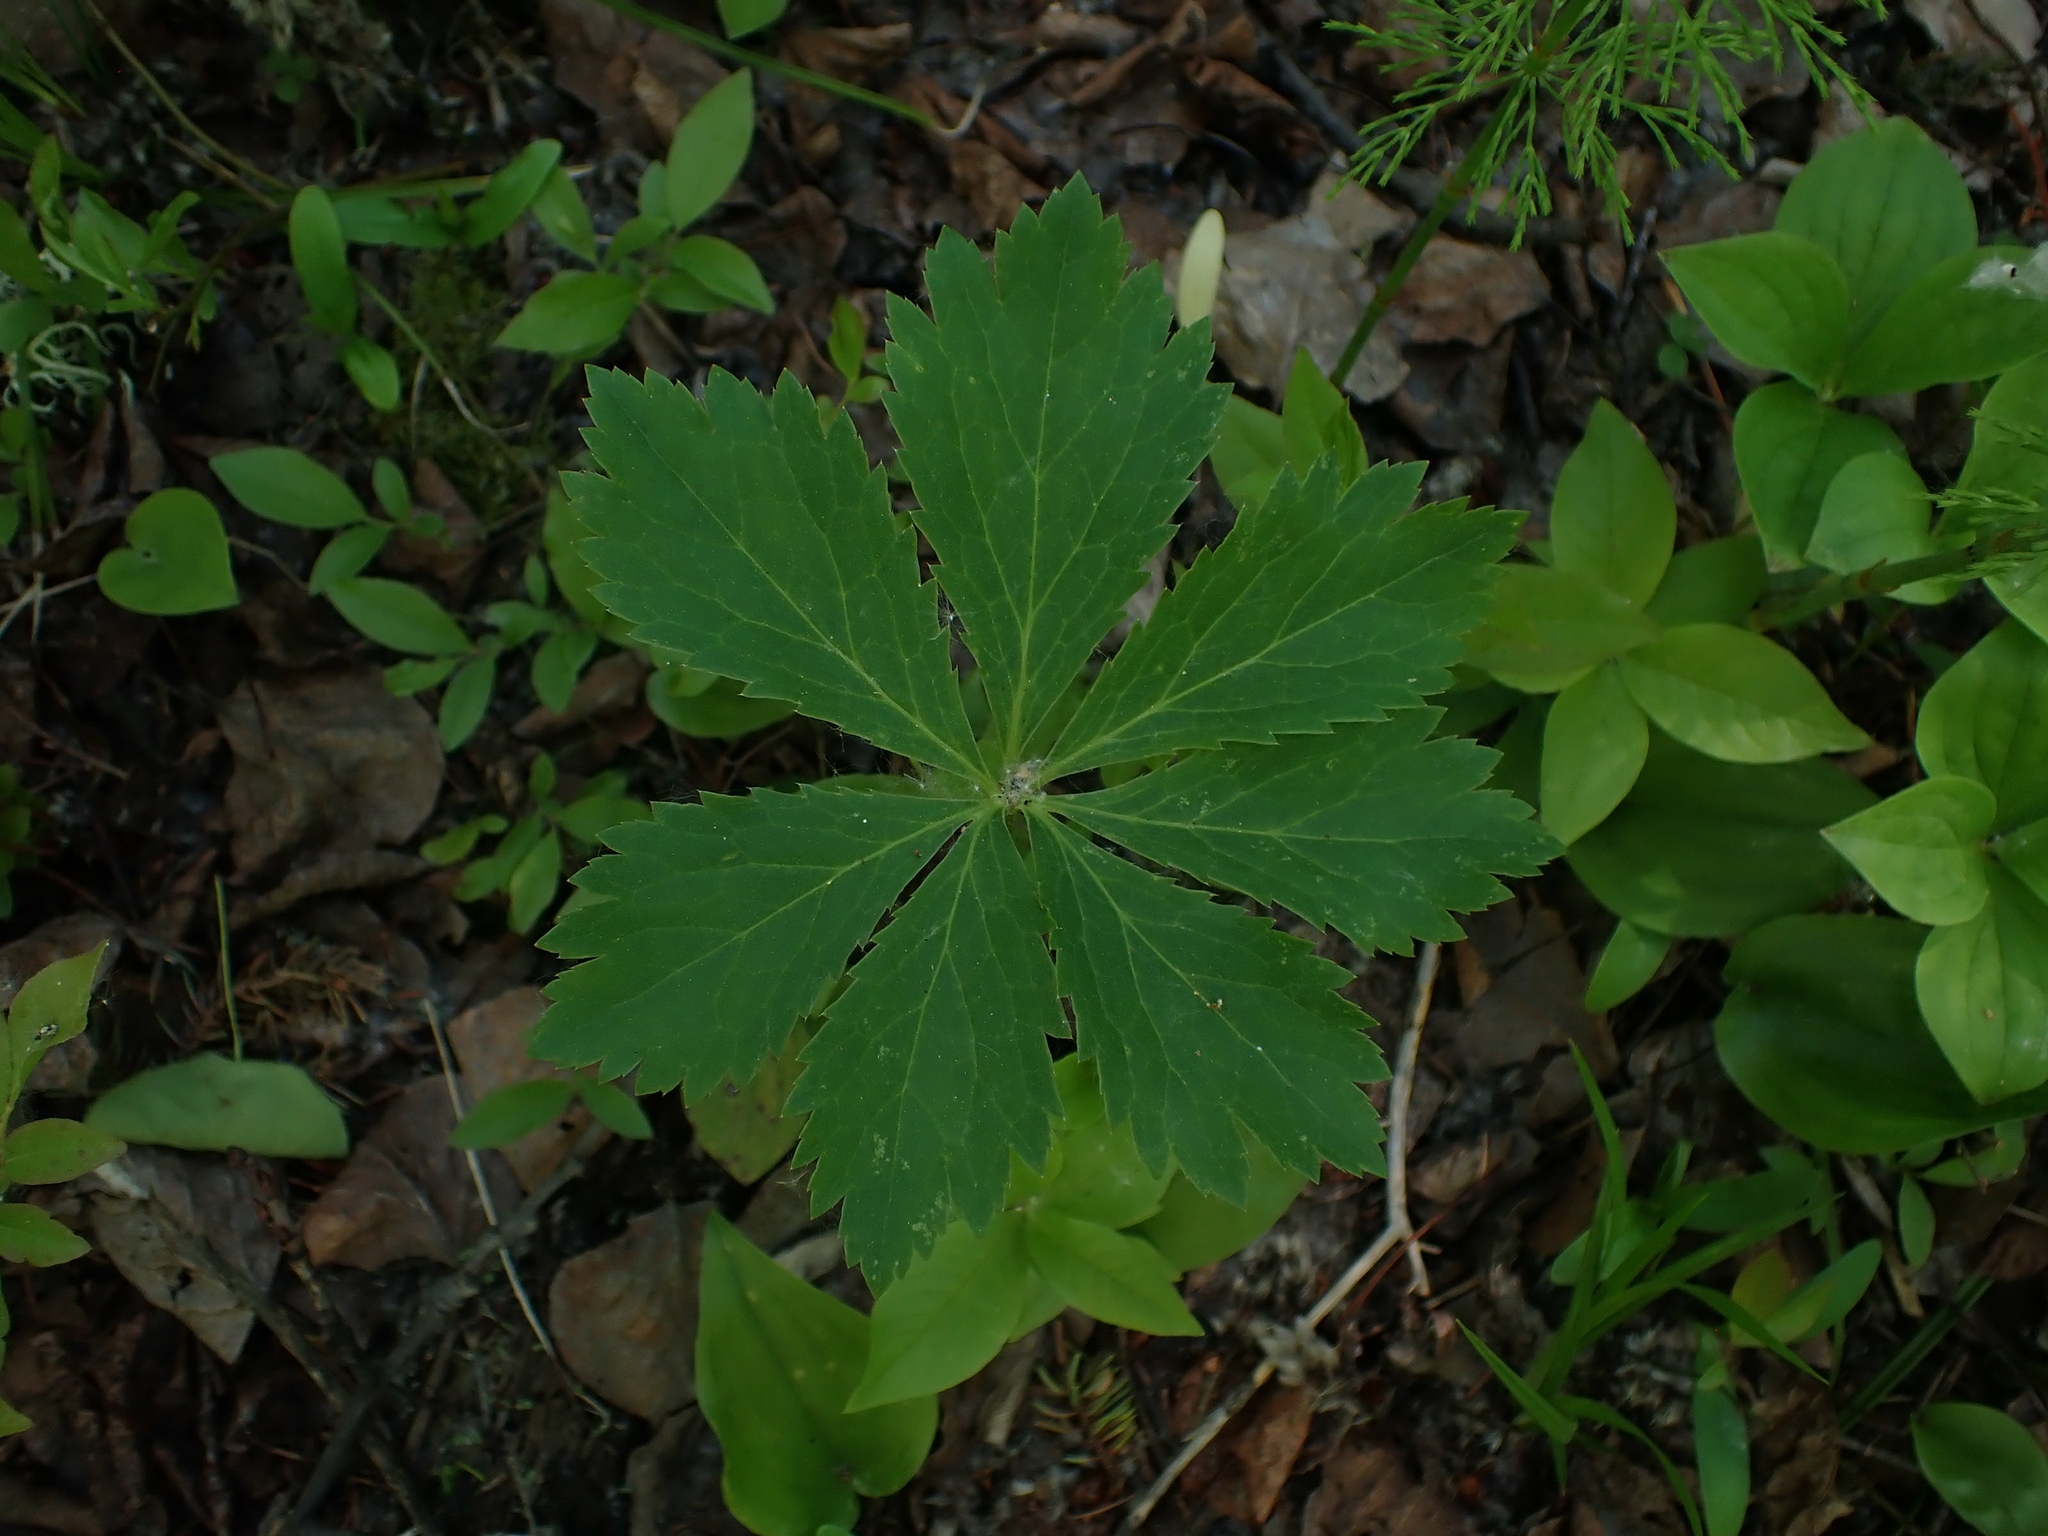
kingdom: Plantae
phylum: Tracheophyta
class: Magnoliopsida
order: Apiales
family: Apiaceae
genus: Sanicula
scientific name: Sanicula marilandica
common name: Black snakeroot
